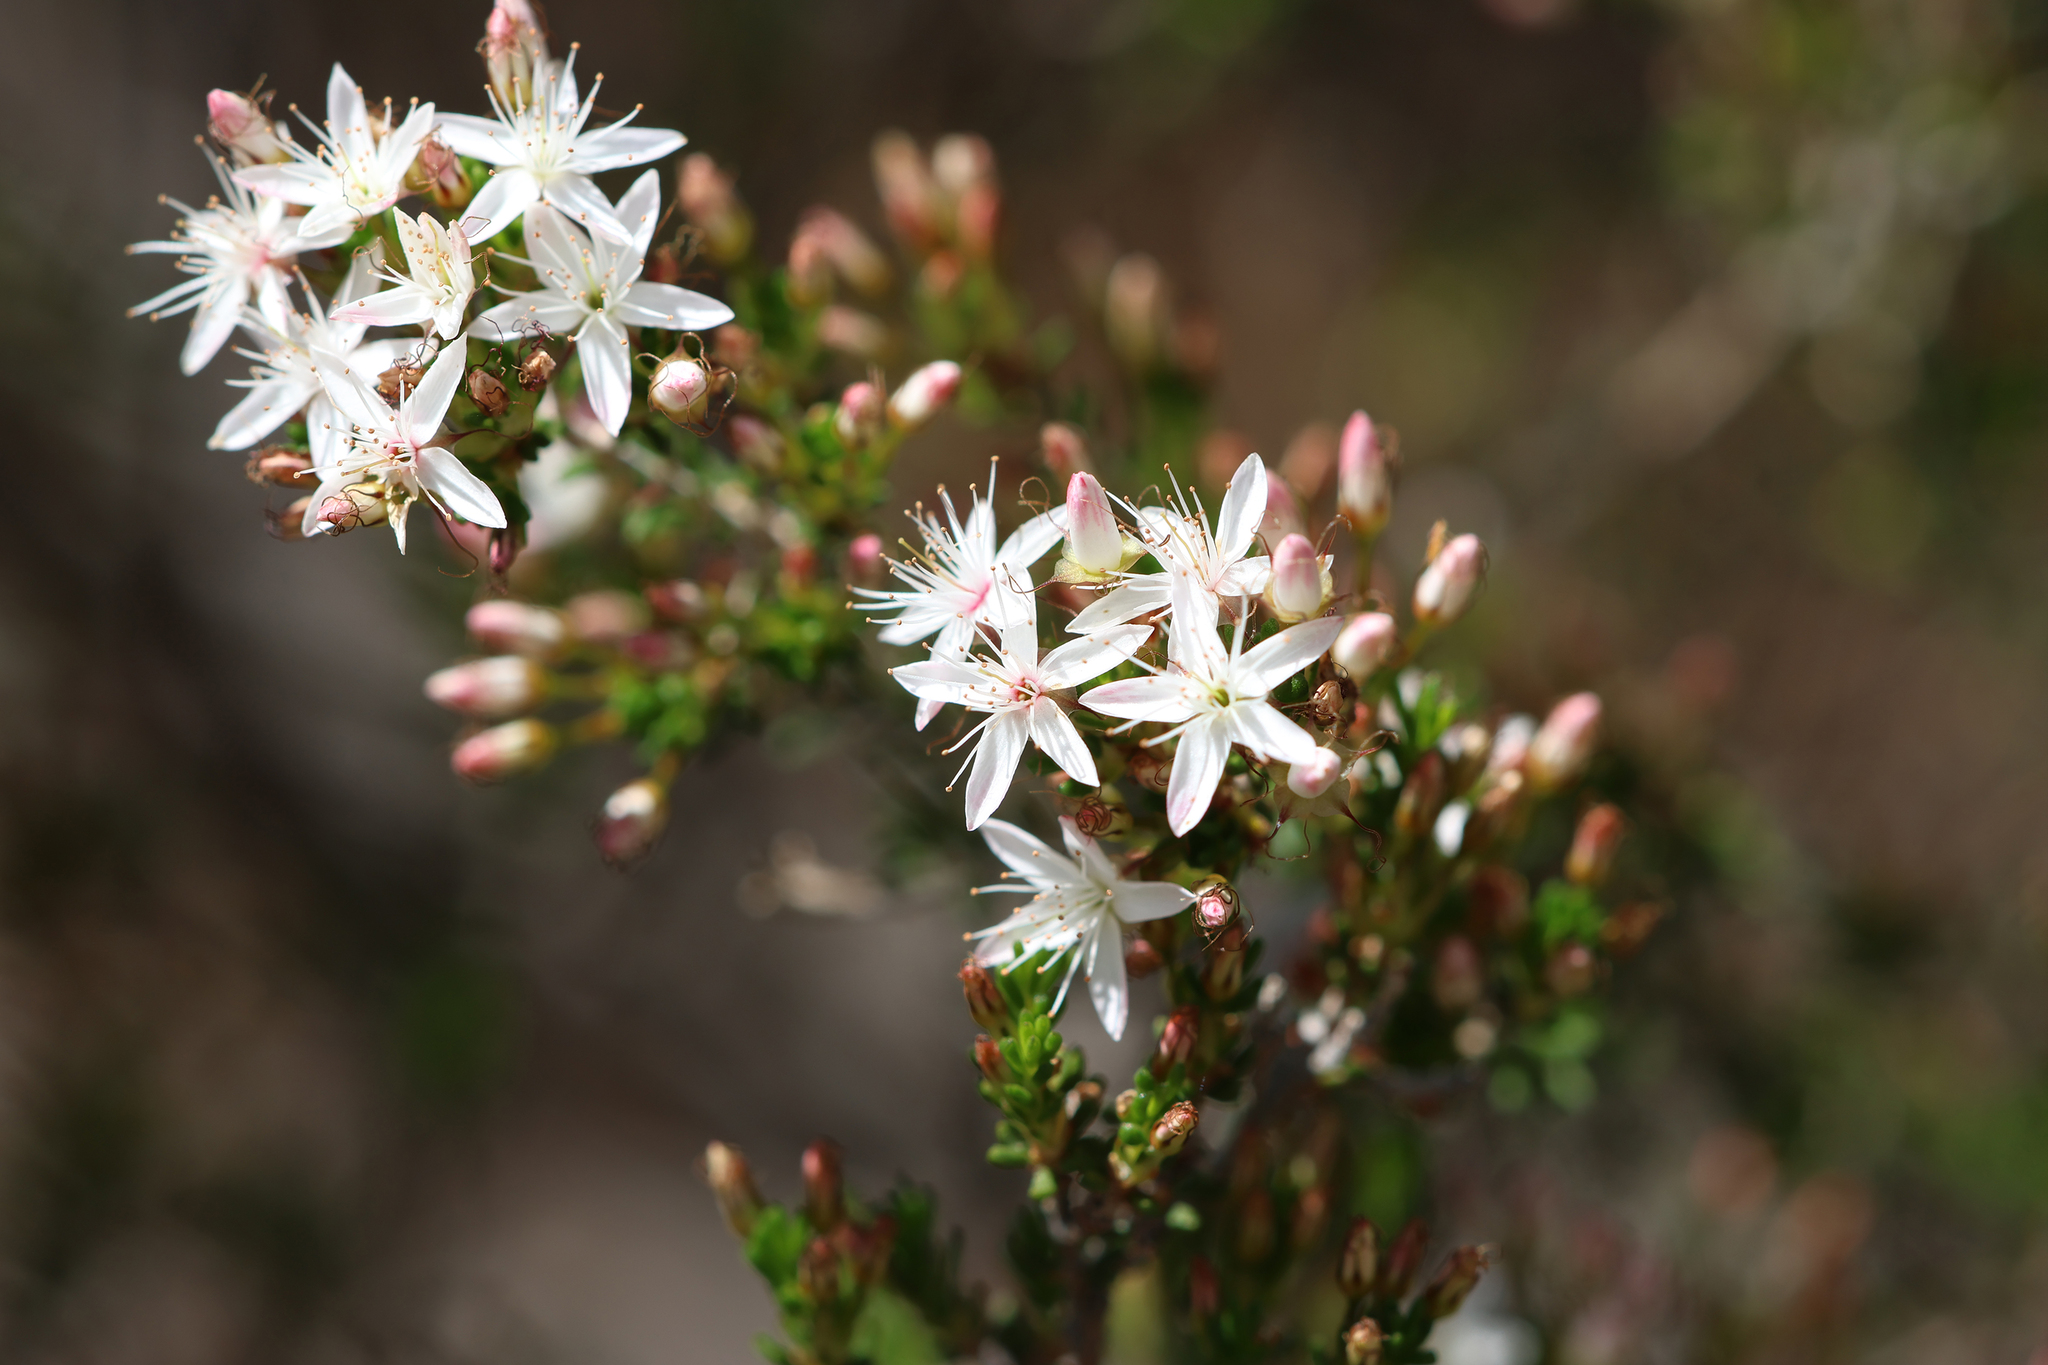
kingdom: Plantae
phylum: Tracheophyta
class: Magnoliopsida
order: Myrtales
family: Myrtaceae
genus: Calytrix
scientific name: Calytrix tetragona
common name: Common fringe myrtle
